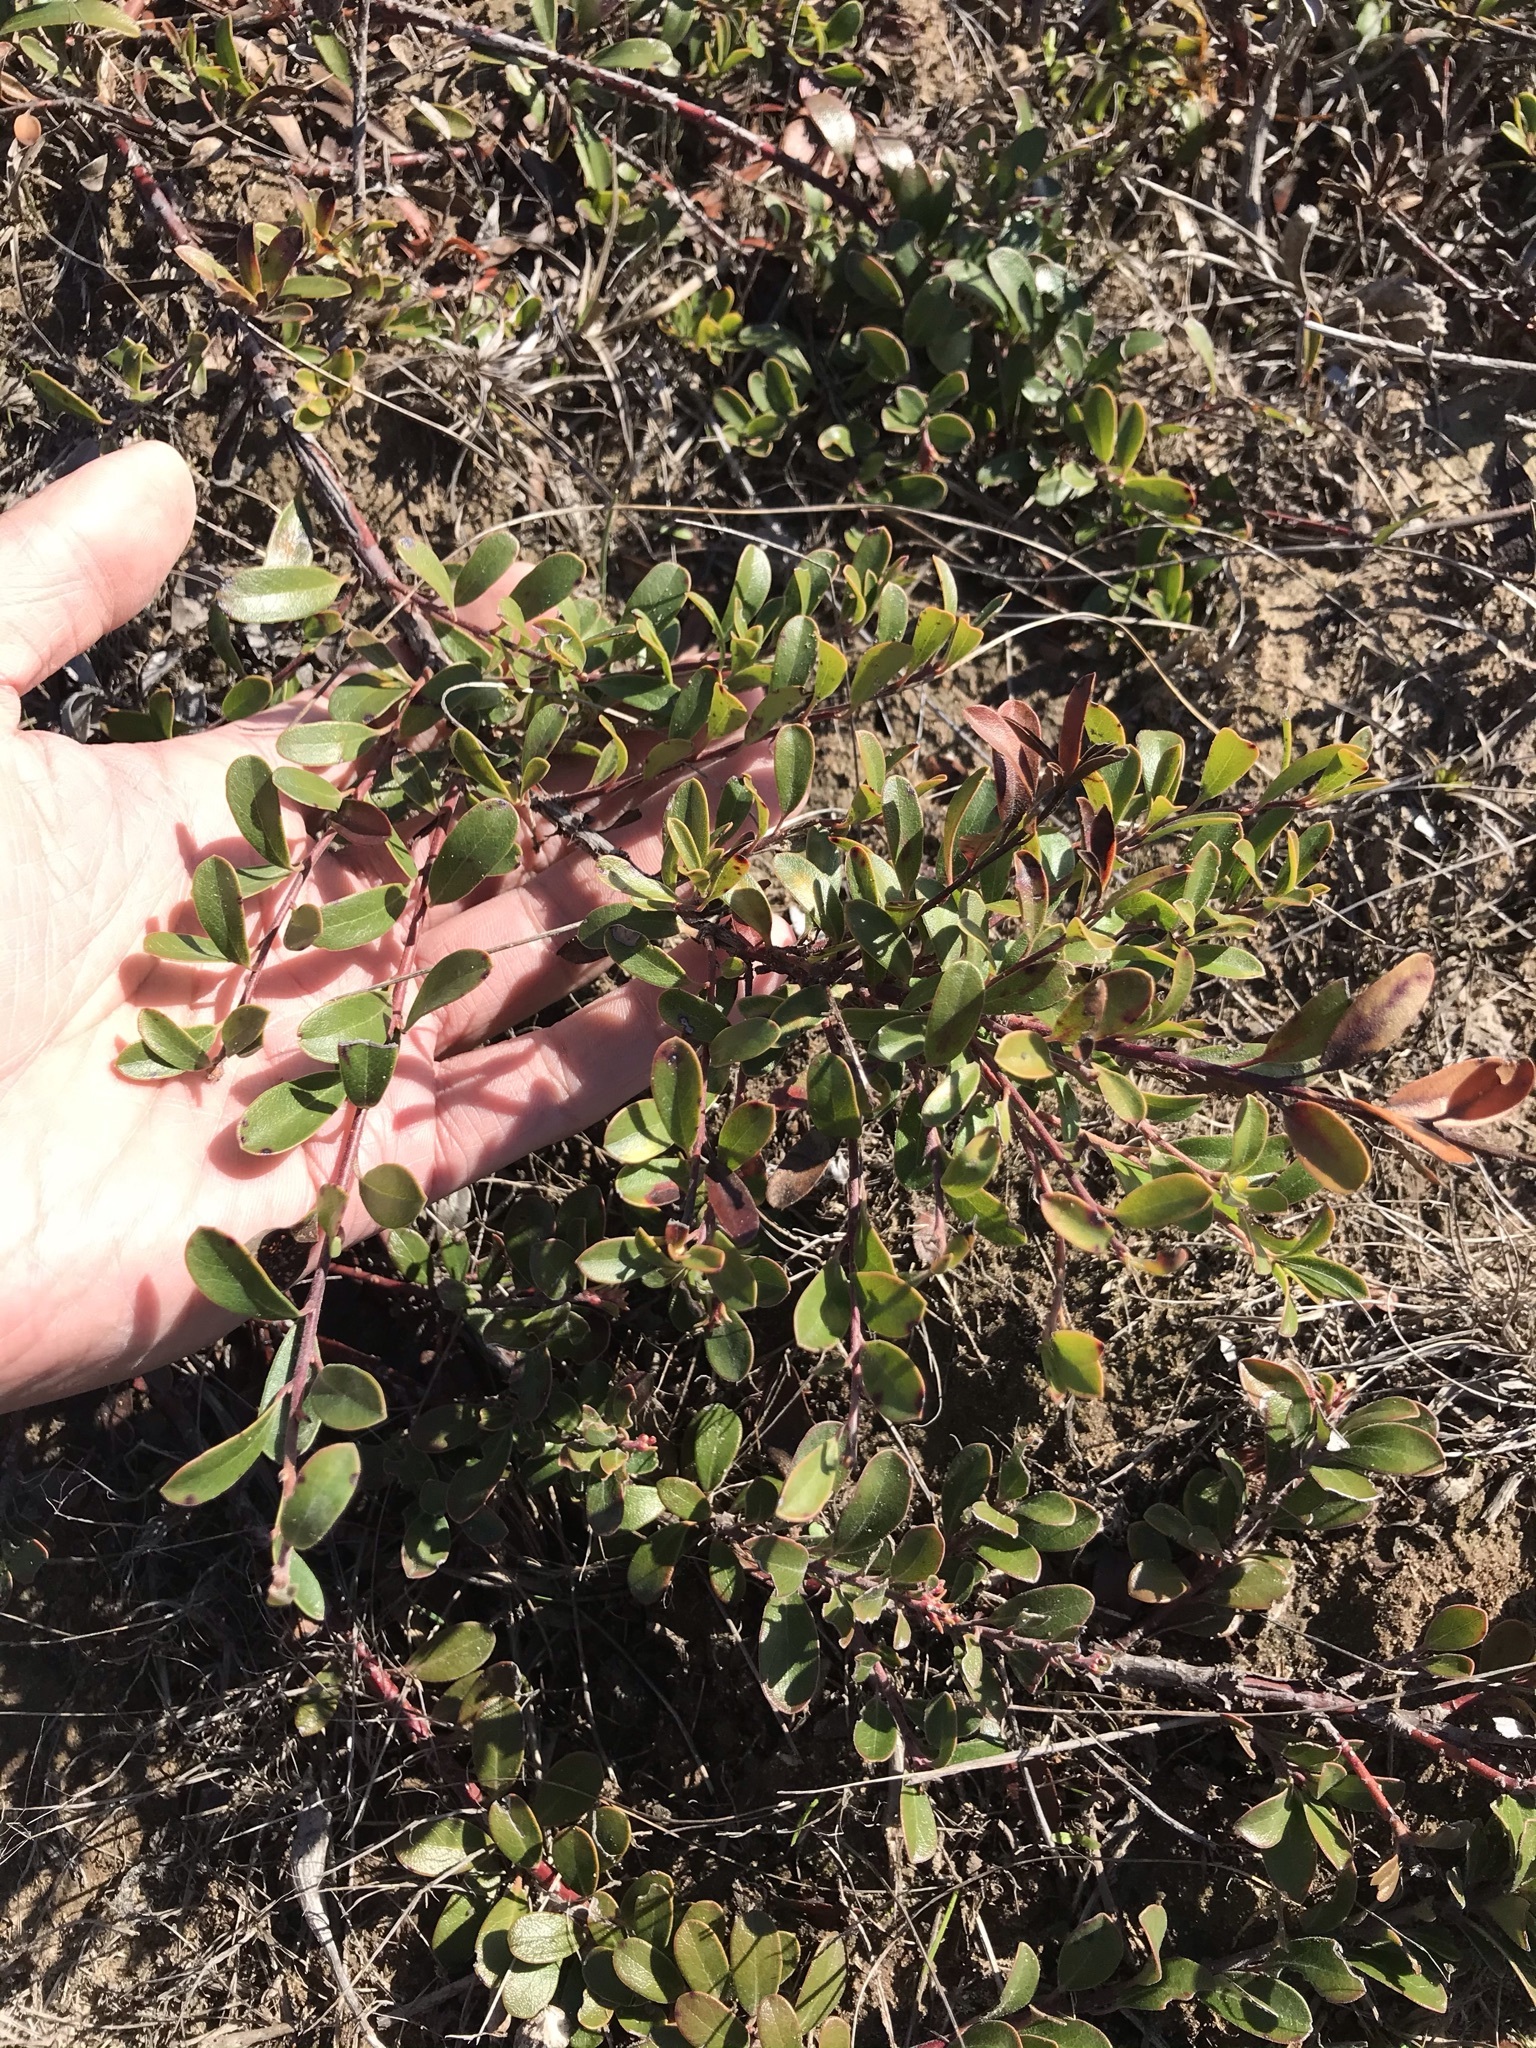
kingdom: Plantae
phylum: Tracheophyta
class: Magnoliopsida
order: Ericales
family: Ericaceae
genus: Arctostaphylos
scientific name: Arctostaphylos uva-ursi
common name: Bearberry
